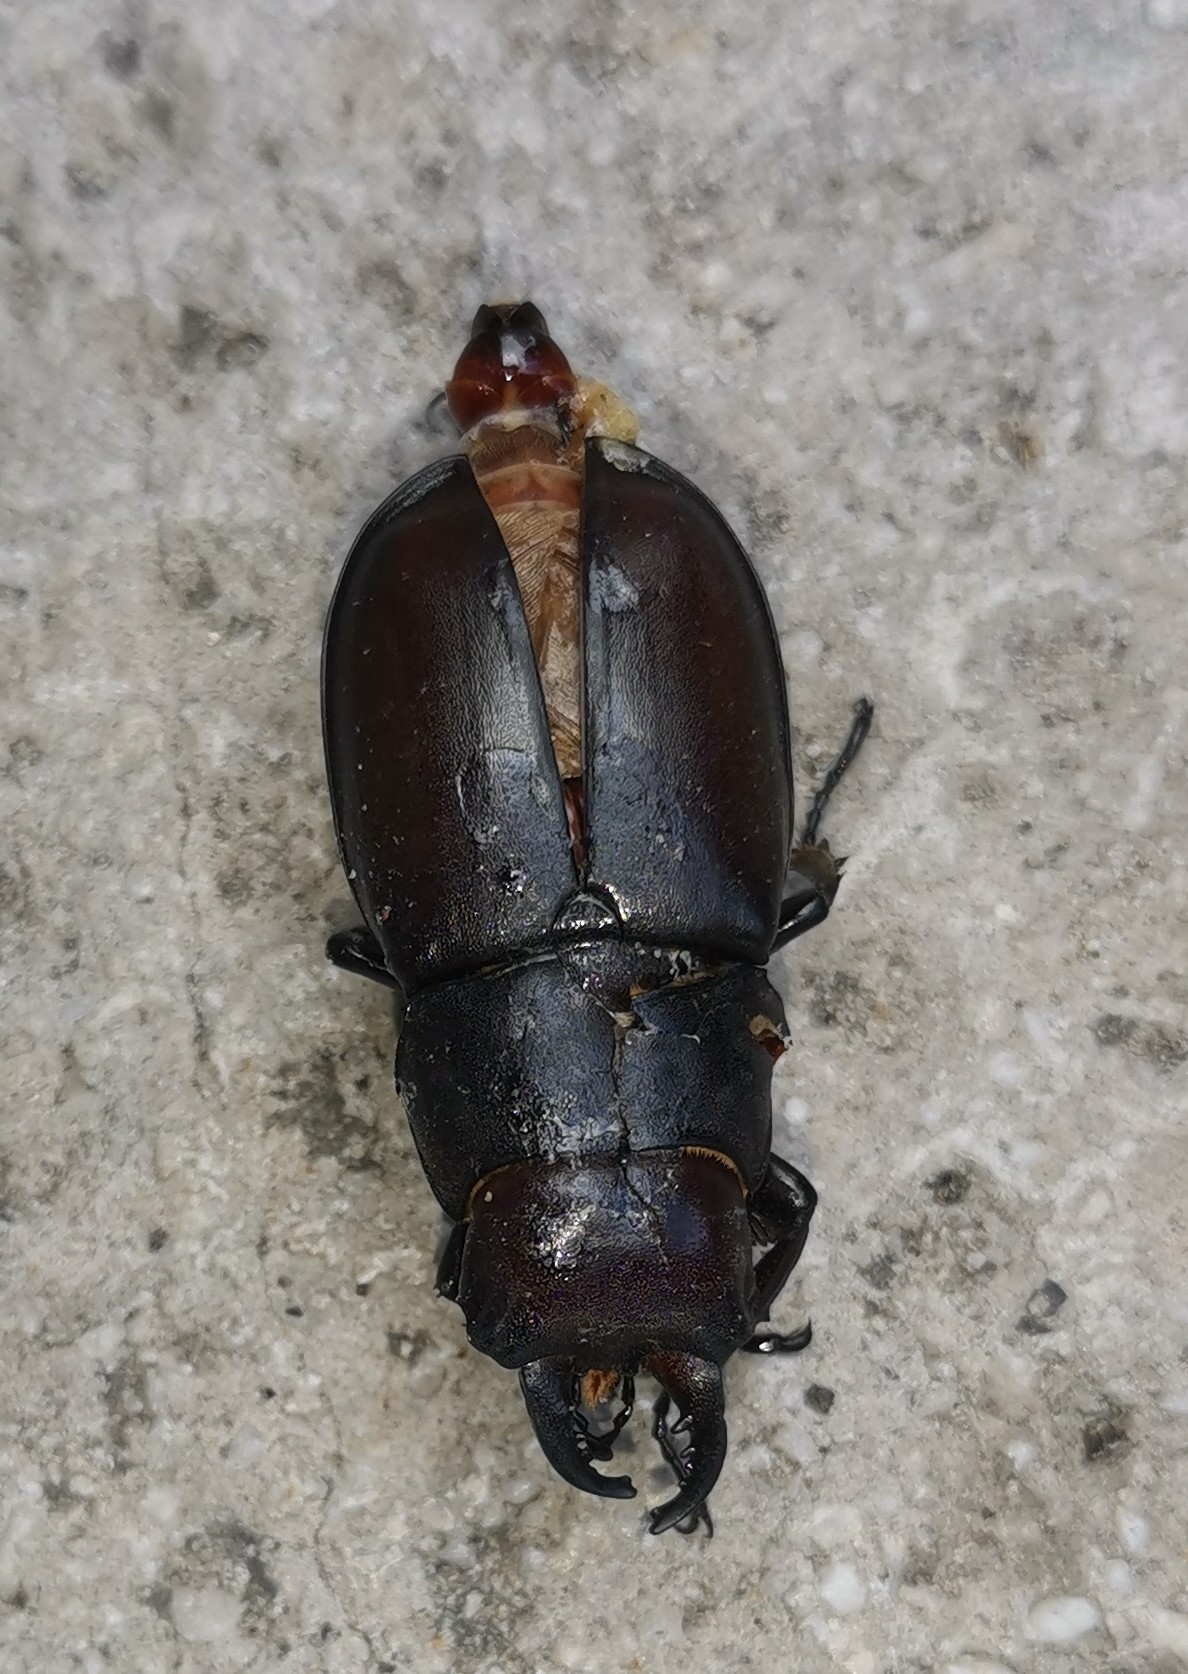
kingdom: Animalia
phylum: Arthropoda
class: Insecta
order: Coleoptera
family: Lucanidae
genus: Lucanus
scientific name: Lucanus tetraodon
